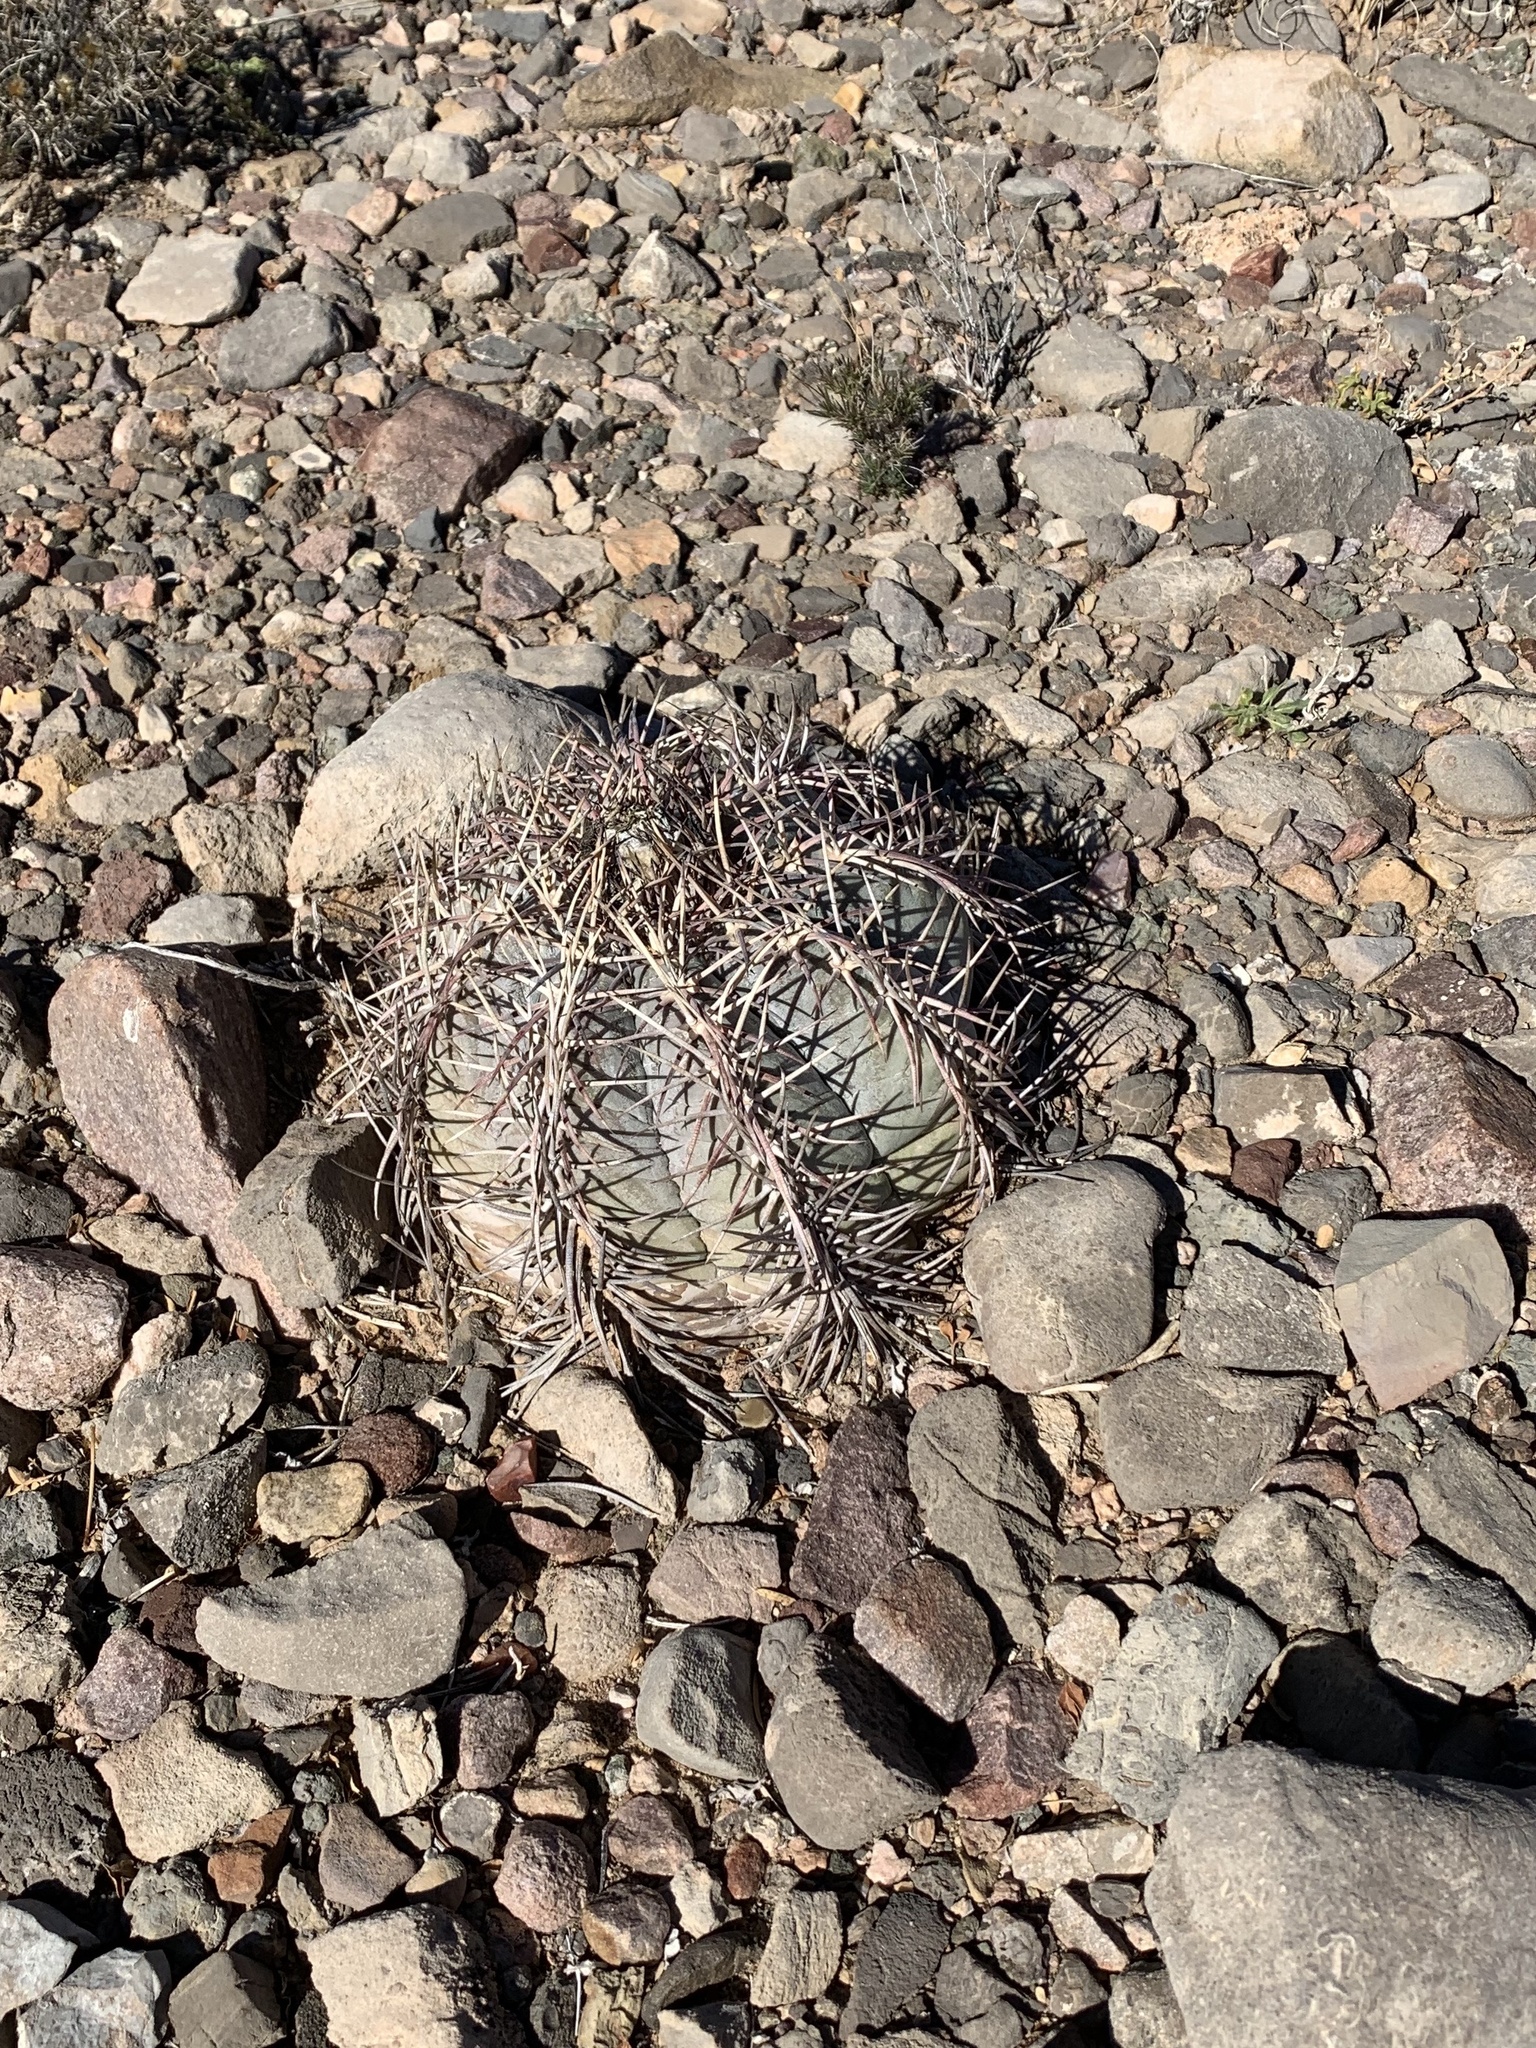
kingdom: Plantae
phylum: Tracheophyta
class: Magnoliopsida
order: Caryophyllales
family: Cactaceae
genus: Echinocactus
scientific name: Echinocactus horizonthalonius
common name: Devilshead
